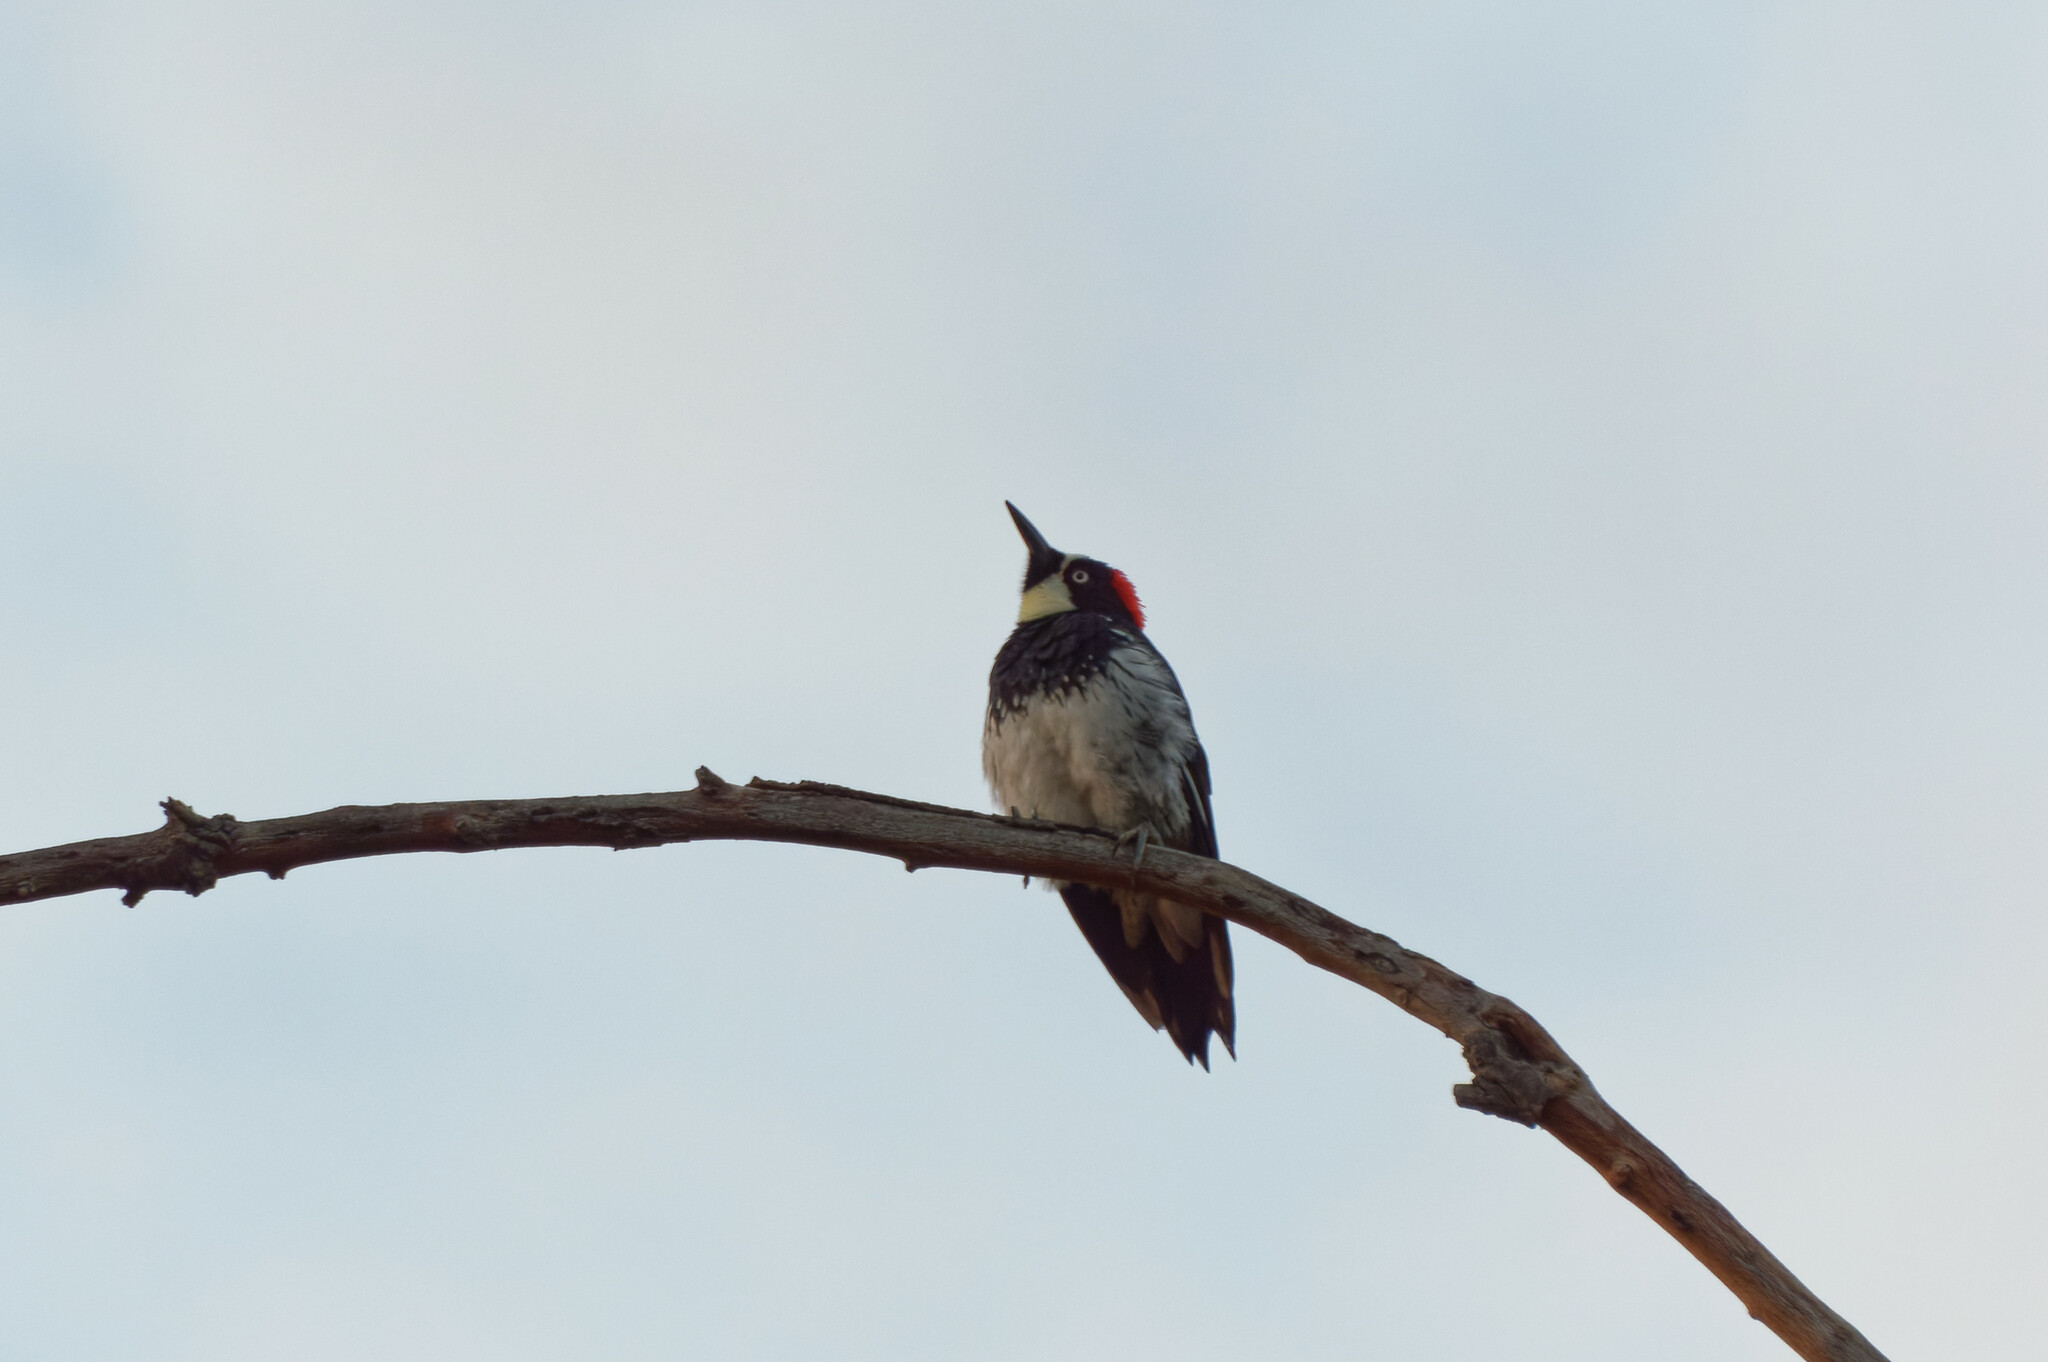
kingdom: Animalia
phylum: Chordata
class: Aves
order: Piciformes
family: Picidae
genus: Melanerpes
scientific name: Melanerpes formicivorus
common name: Acorn woodpecker
